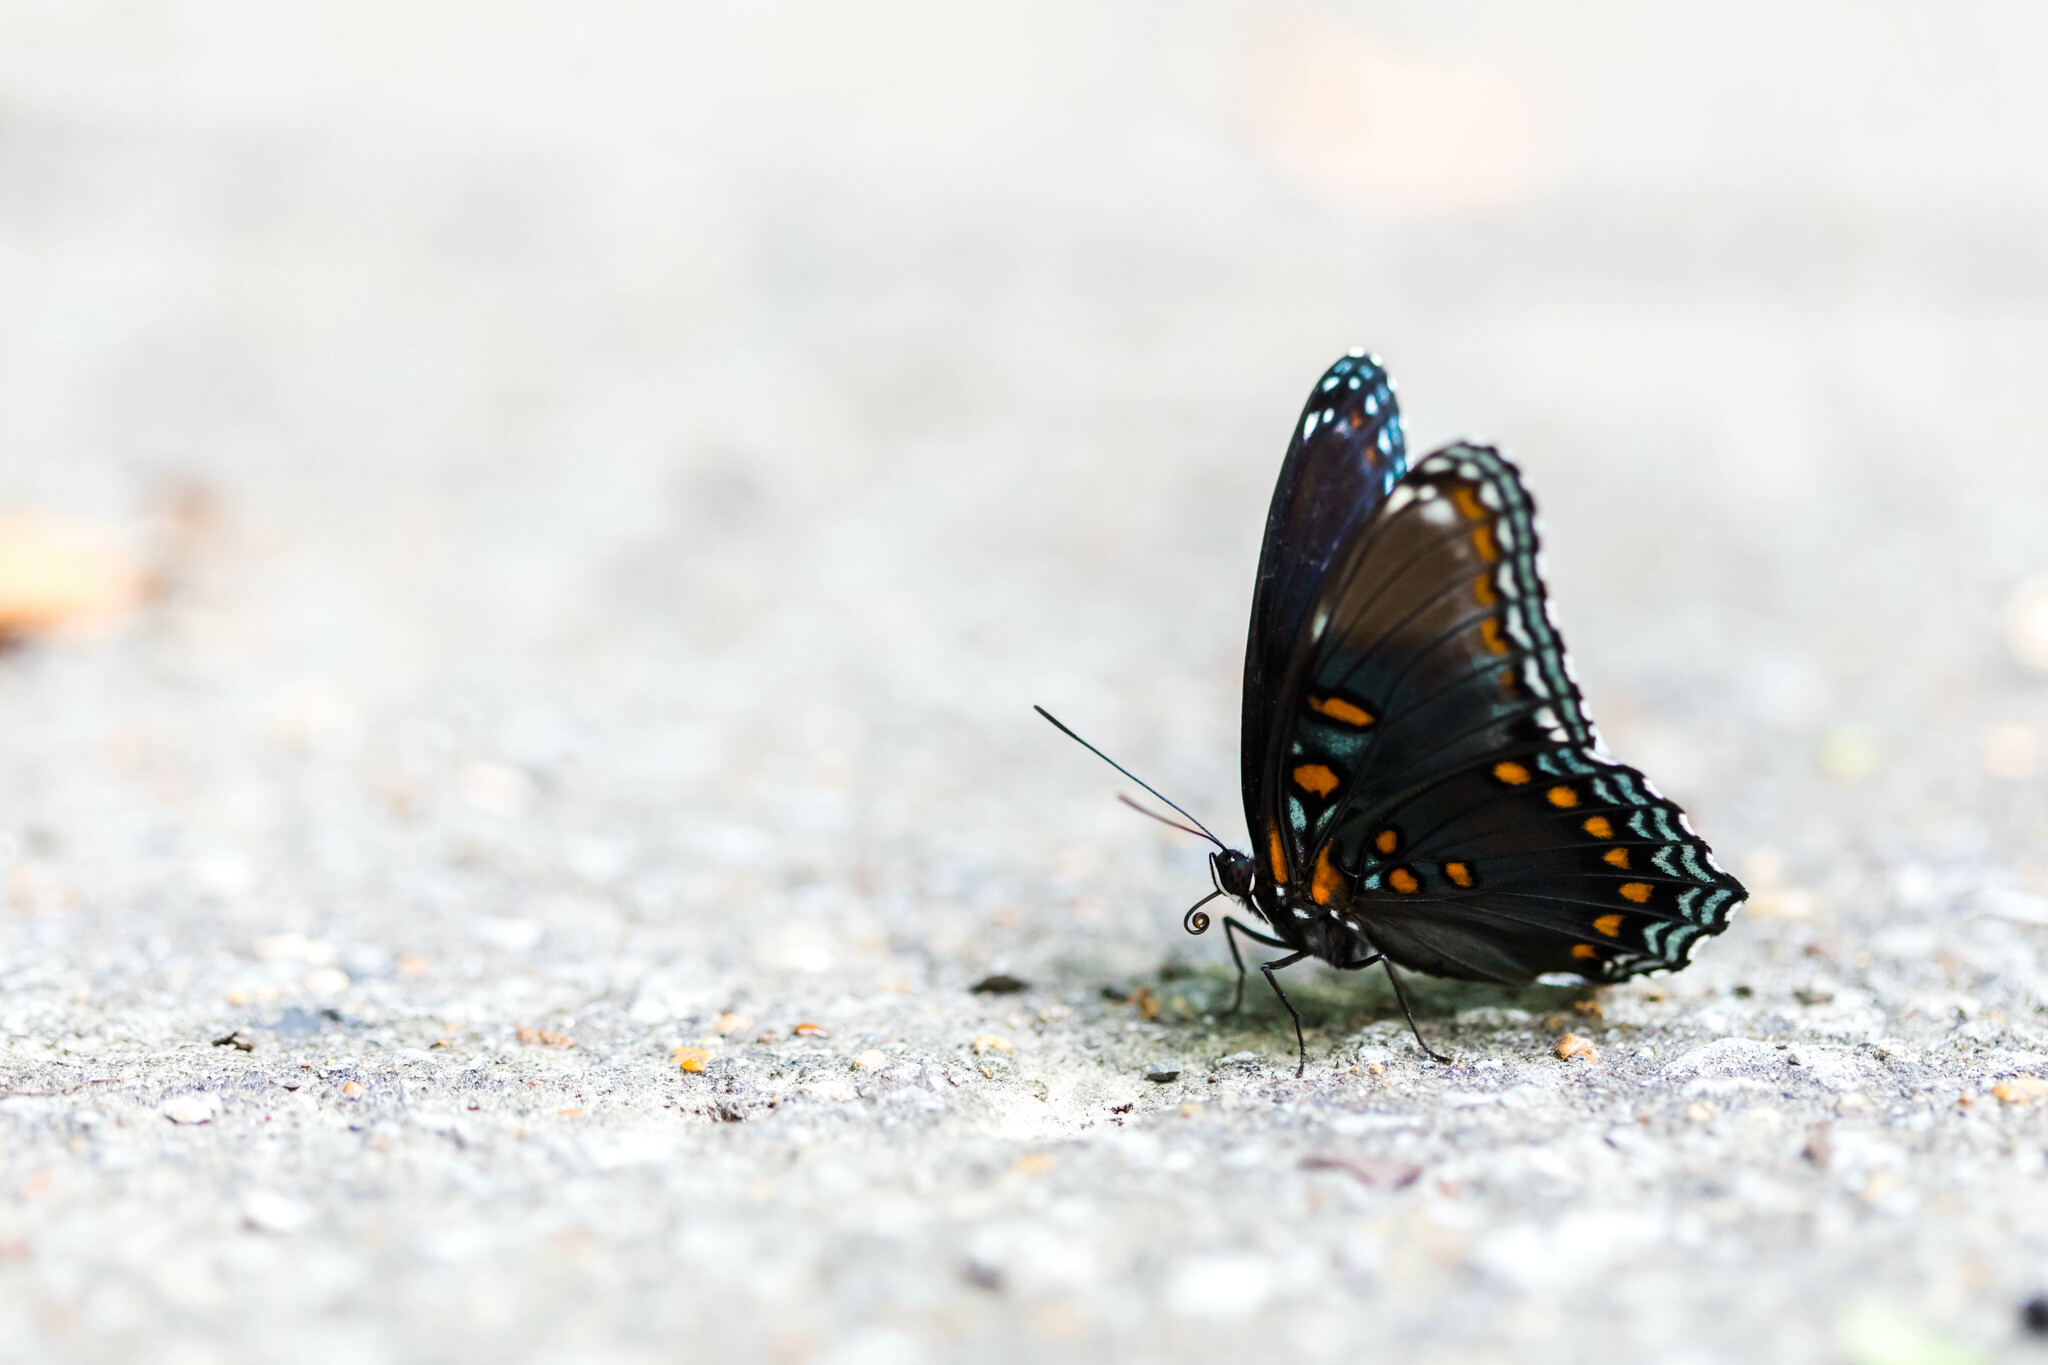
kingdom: Animalia
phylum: Arthropoda
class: Insecta
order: Lepidoptera
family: Nymphalidae
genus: Limenitis
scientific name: Limenitis astyanax
